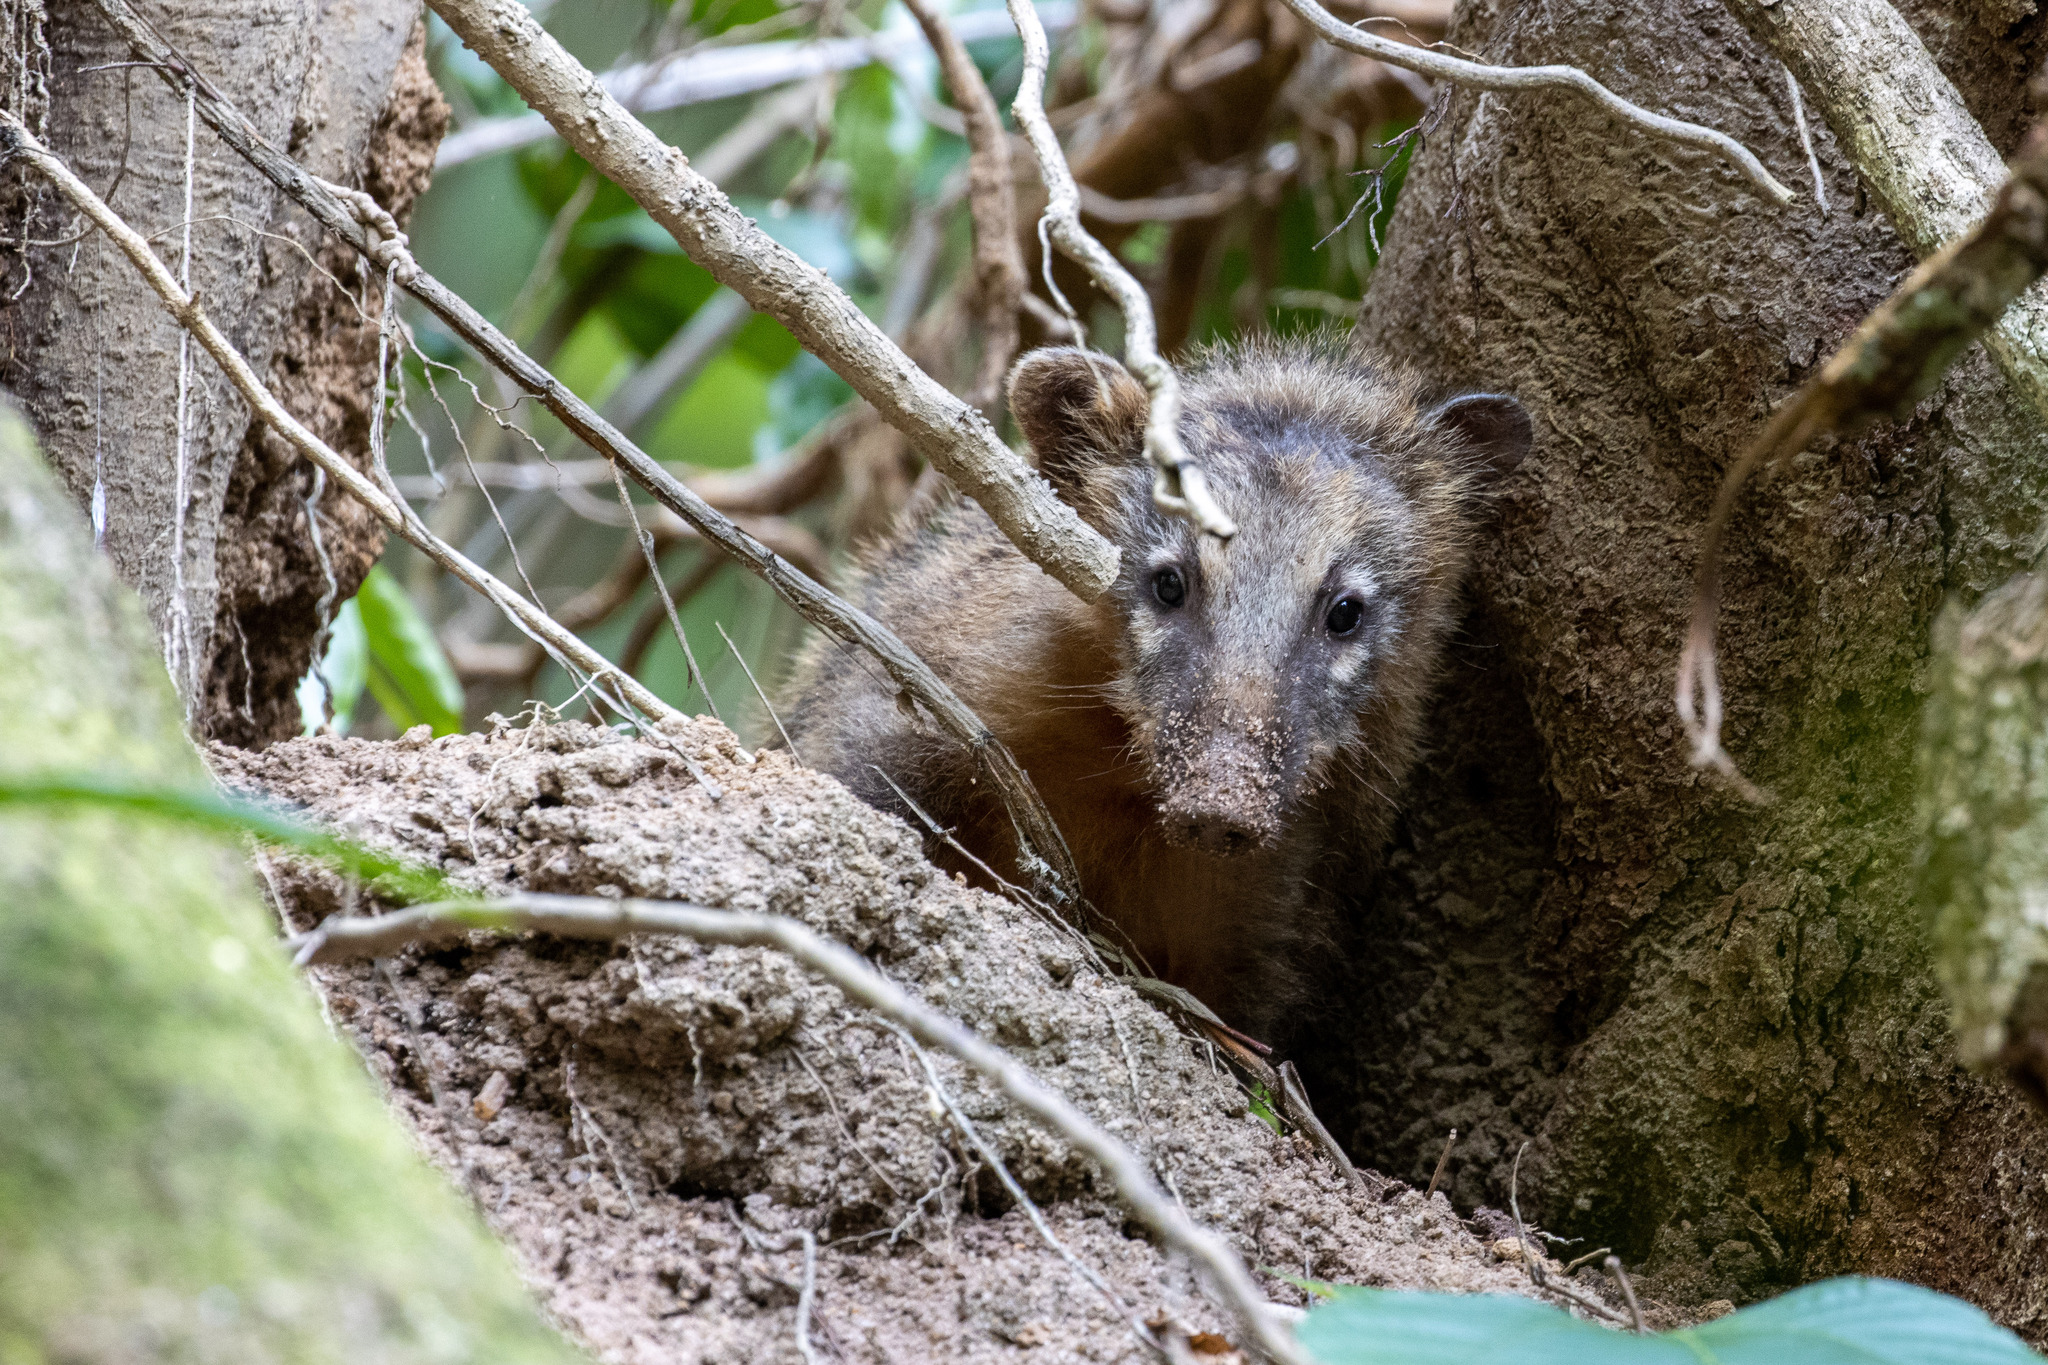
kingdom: Animalia
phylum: Chordata
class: Mammalia
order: Carnivora
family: Procyonidae
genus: Nasua
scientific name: Nasua nasua
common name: South american coati
